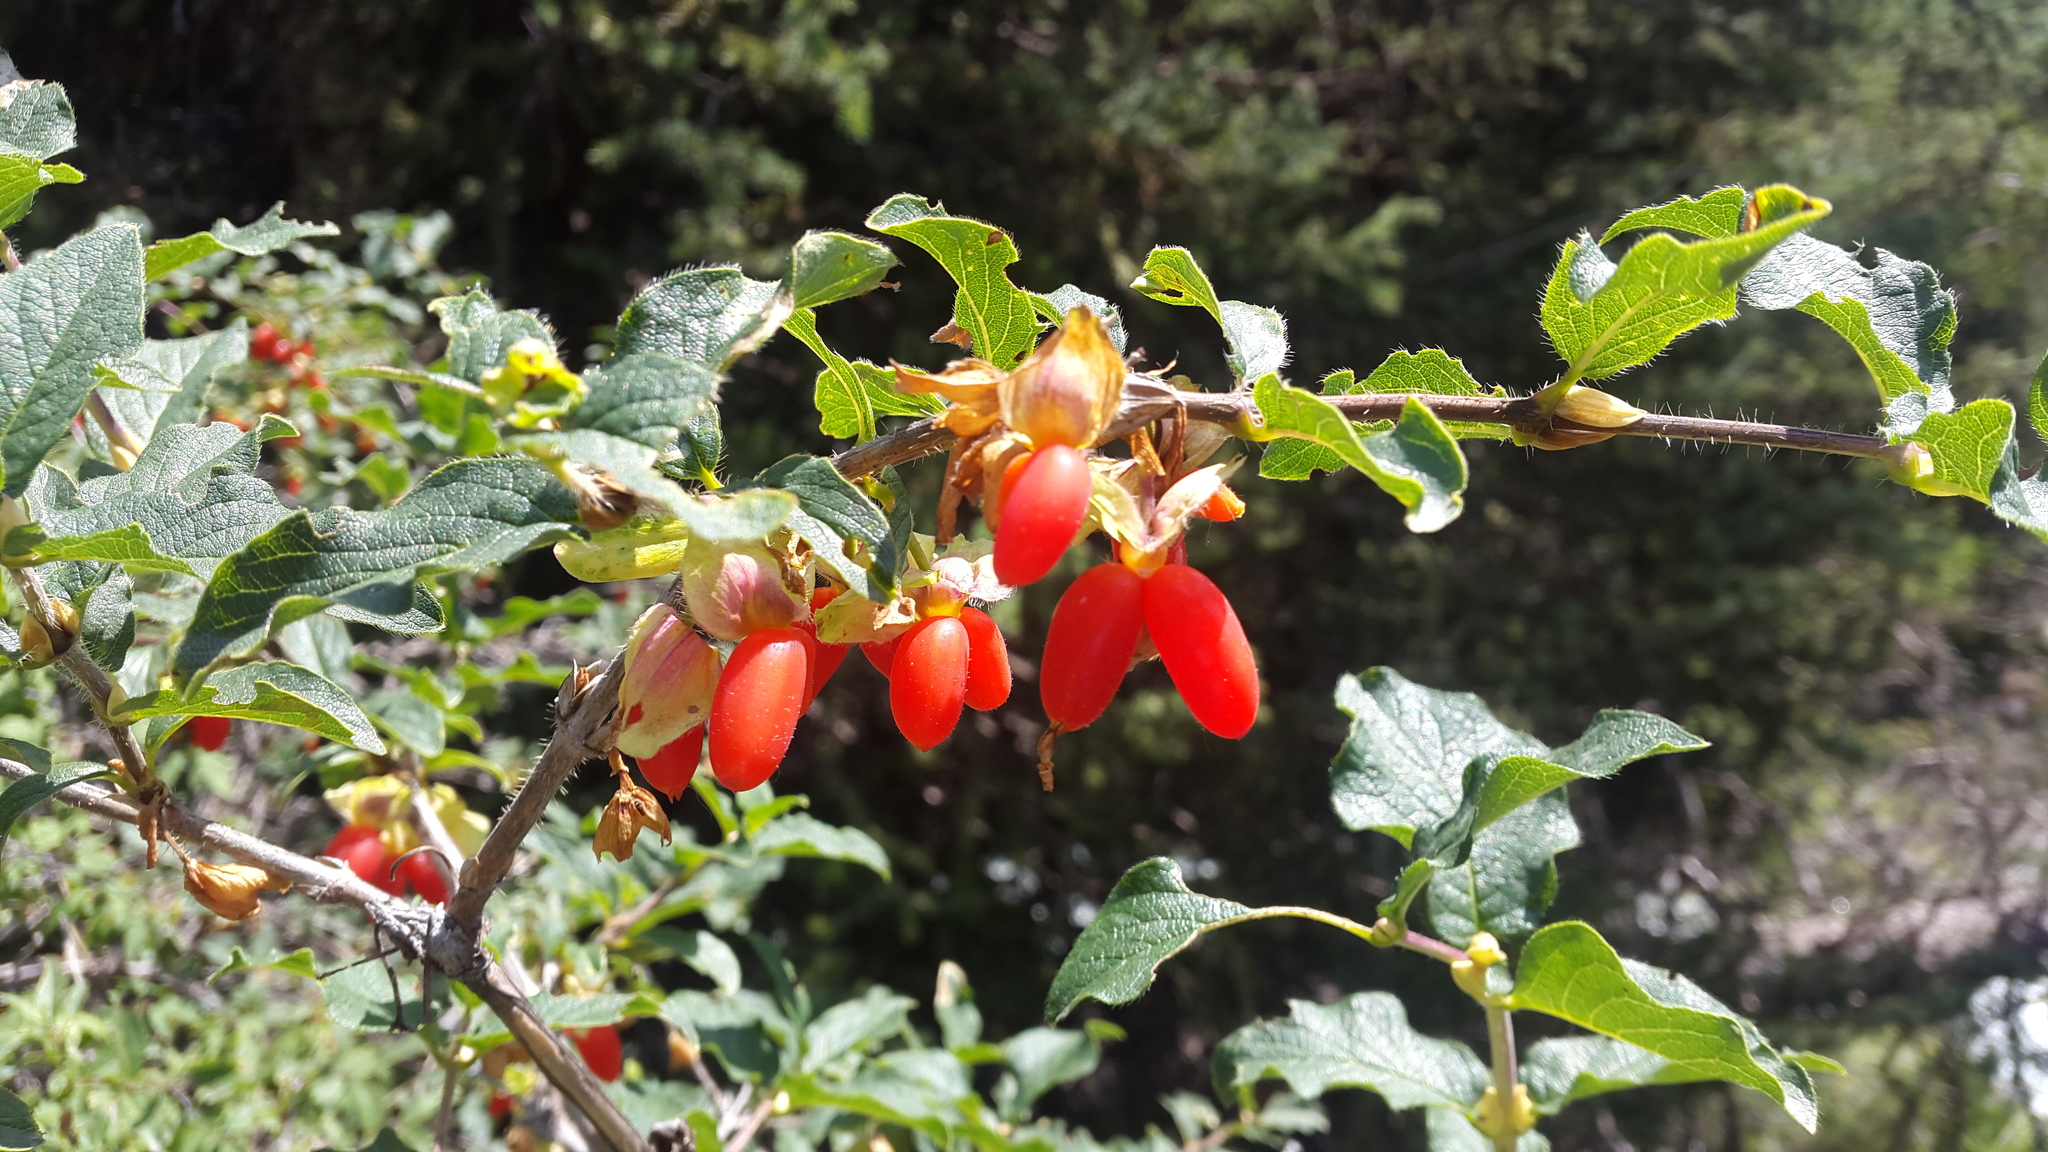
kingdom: Plantae
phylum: Tracheophyta
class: Magnoliopsida
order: Dipsacales
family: Caprifoliaceae
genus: Lonicera
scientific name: Lonicera hispida
